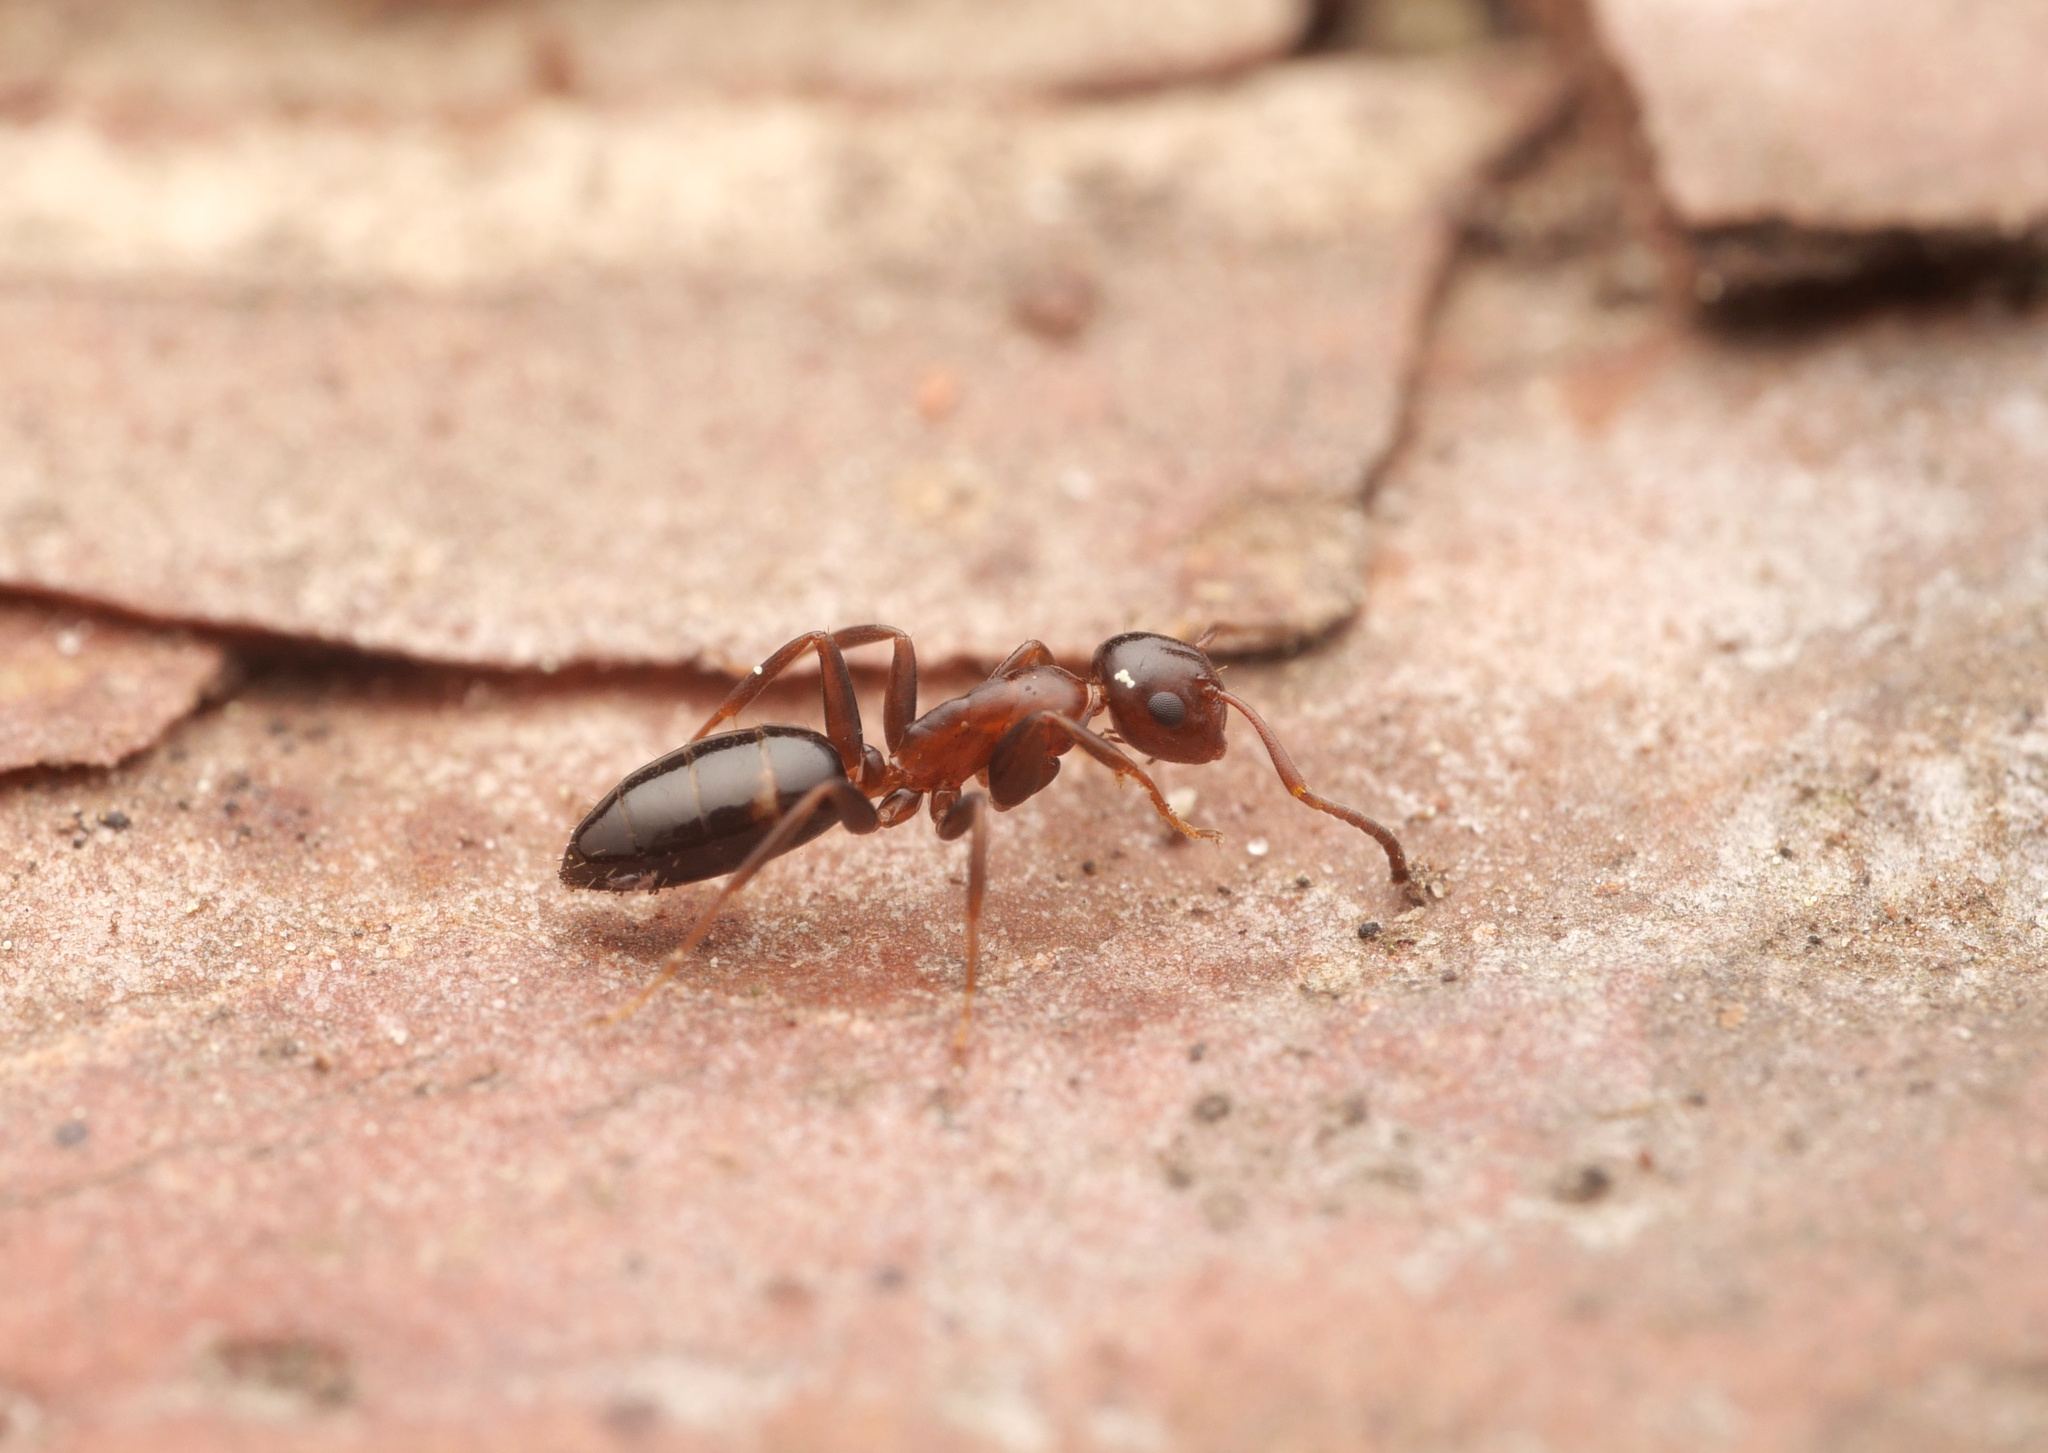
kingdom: Animalia
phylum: Arthropoda
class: Insecta
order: Hymenoptera
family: Formicidae
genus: Camponotus
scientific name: Camponotus truncatus
